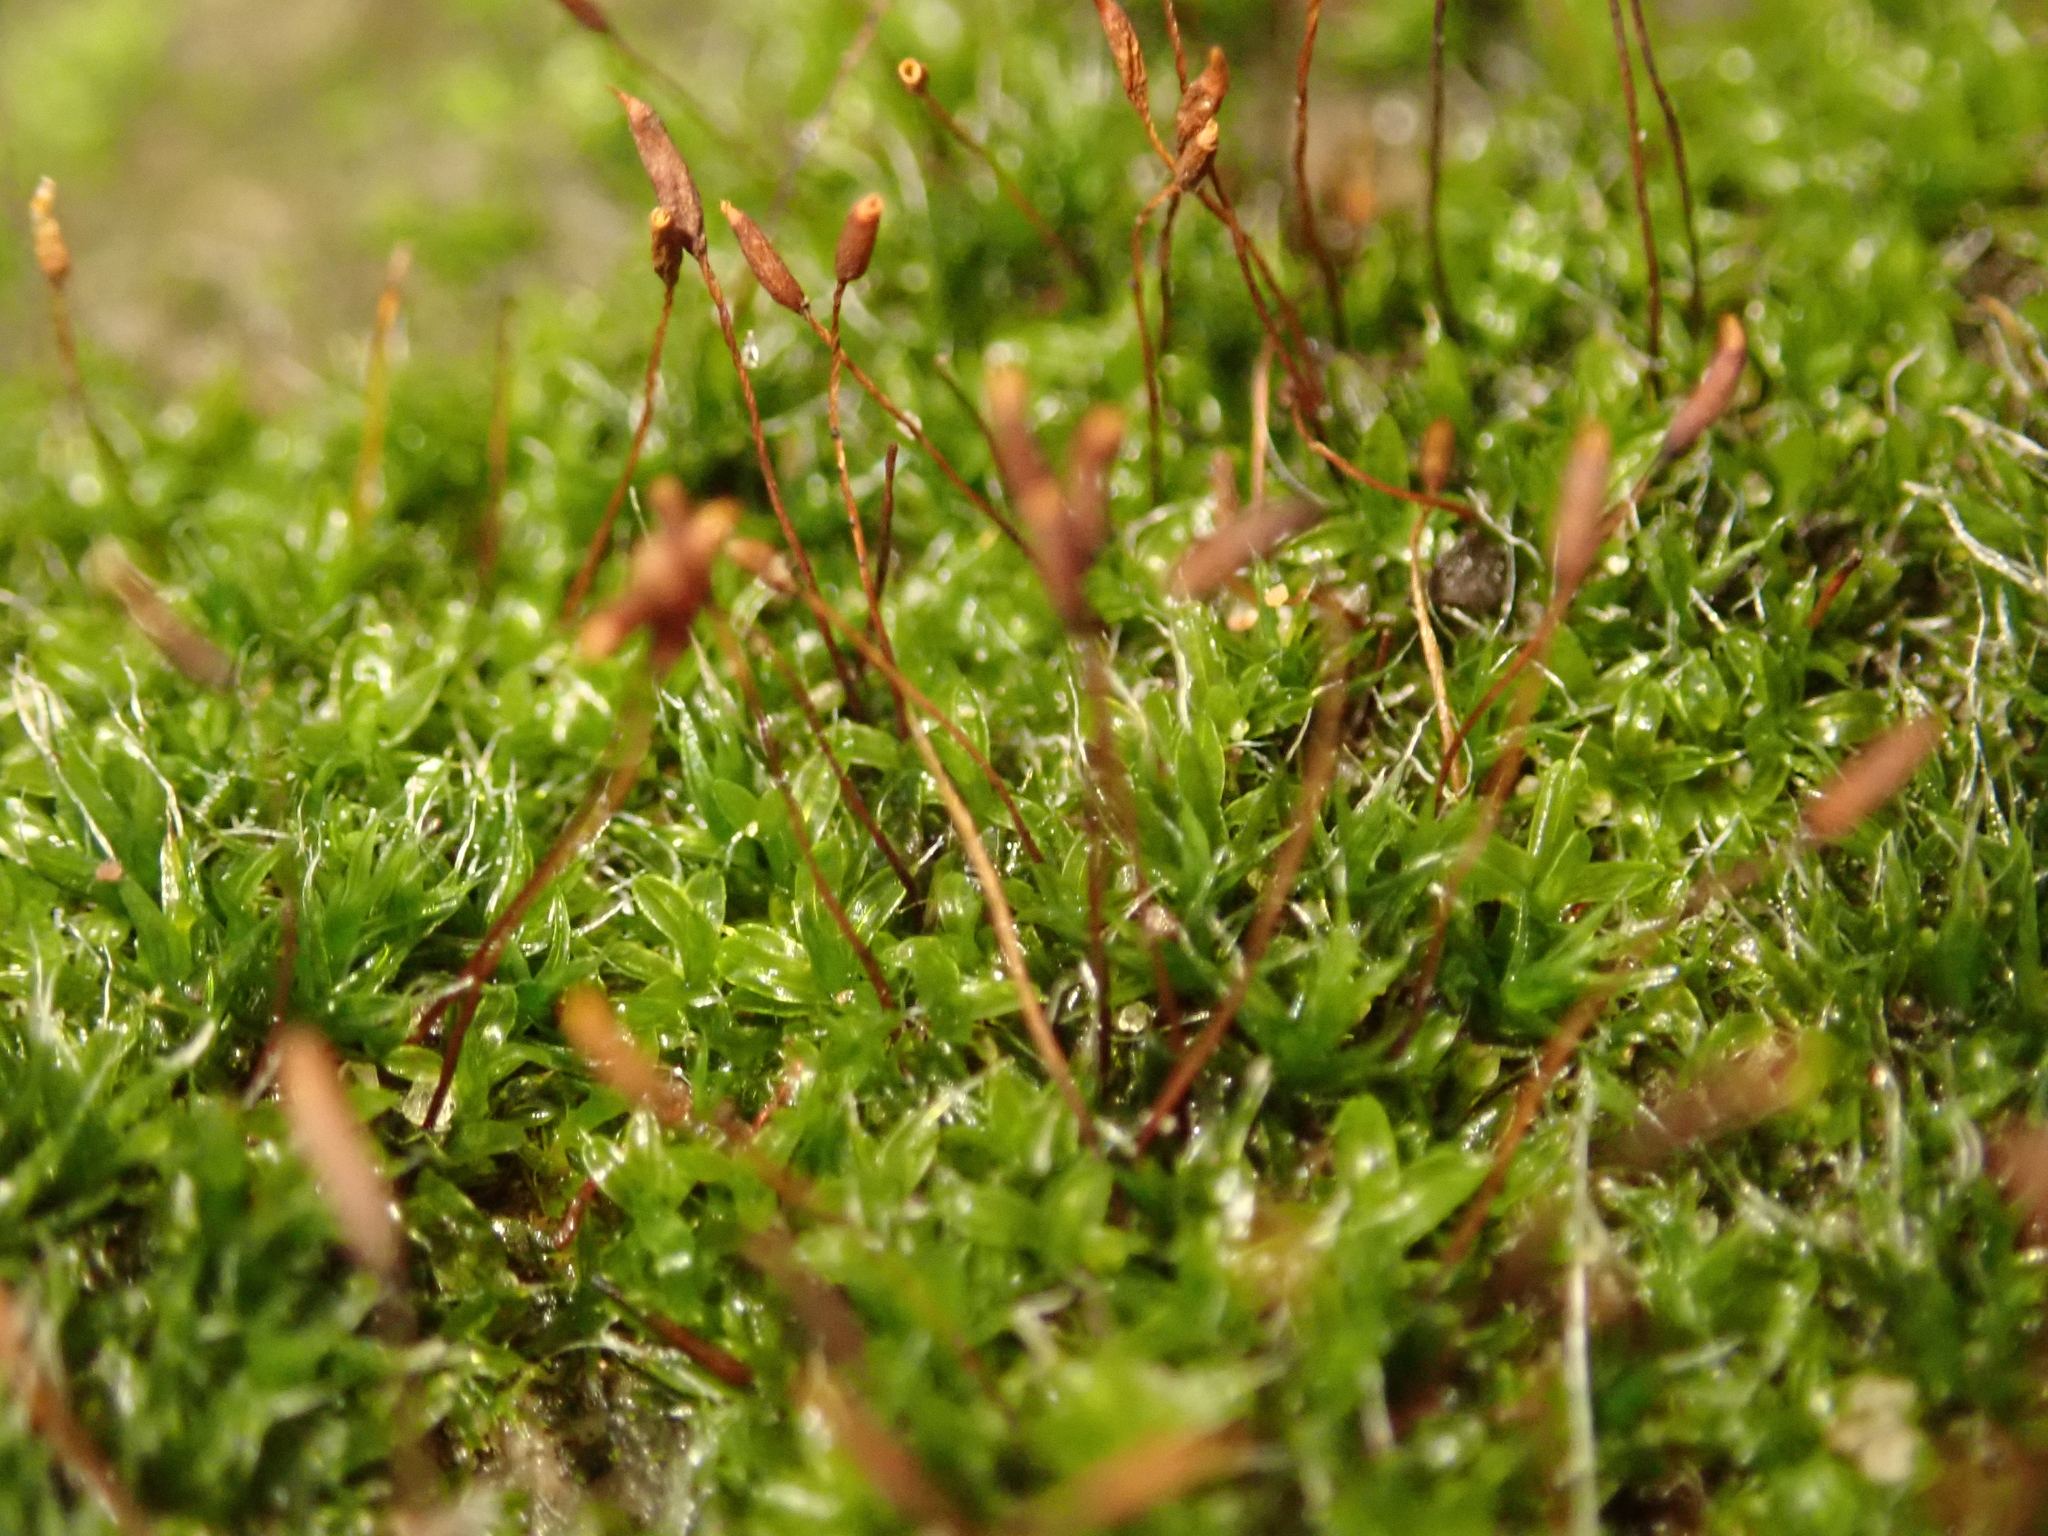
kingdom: Plantae
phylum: Bryophyta
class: Bryopsida
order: Pottiales
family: Pottiaceae
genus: Tortula
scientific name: Tortula muralis
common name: Wall screw-moss
